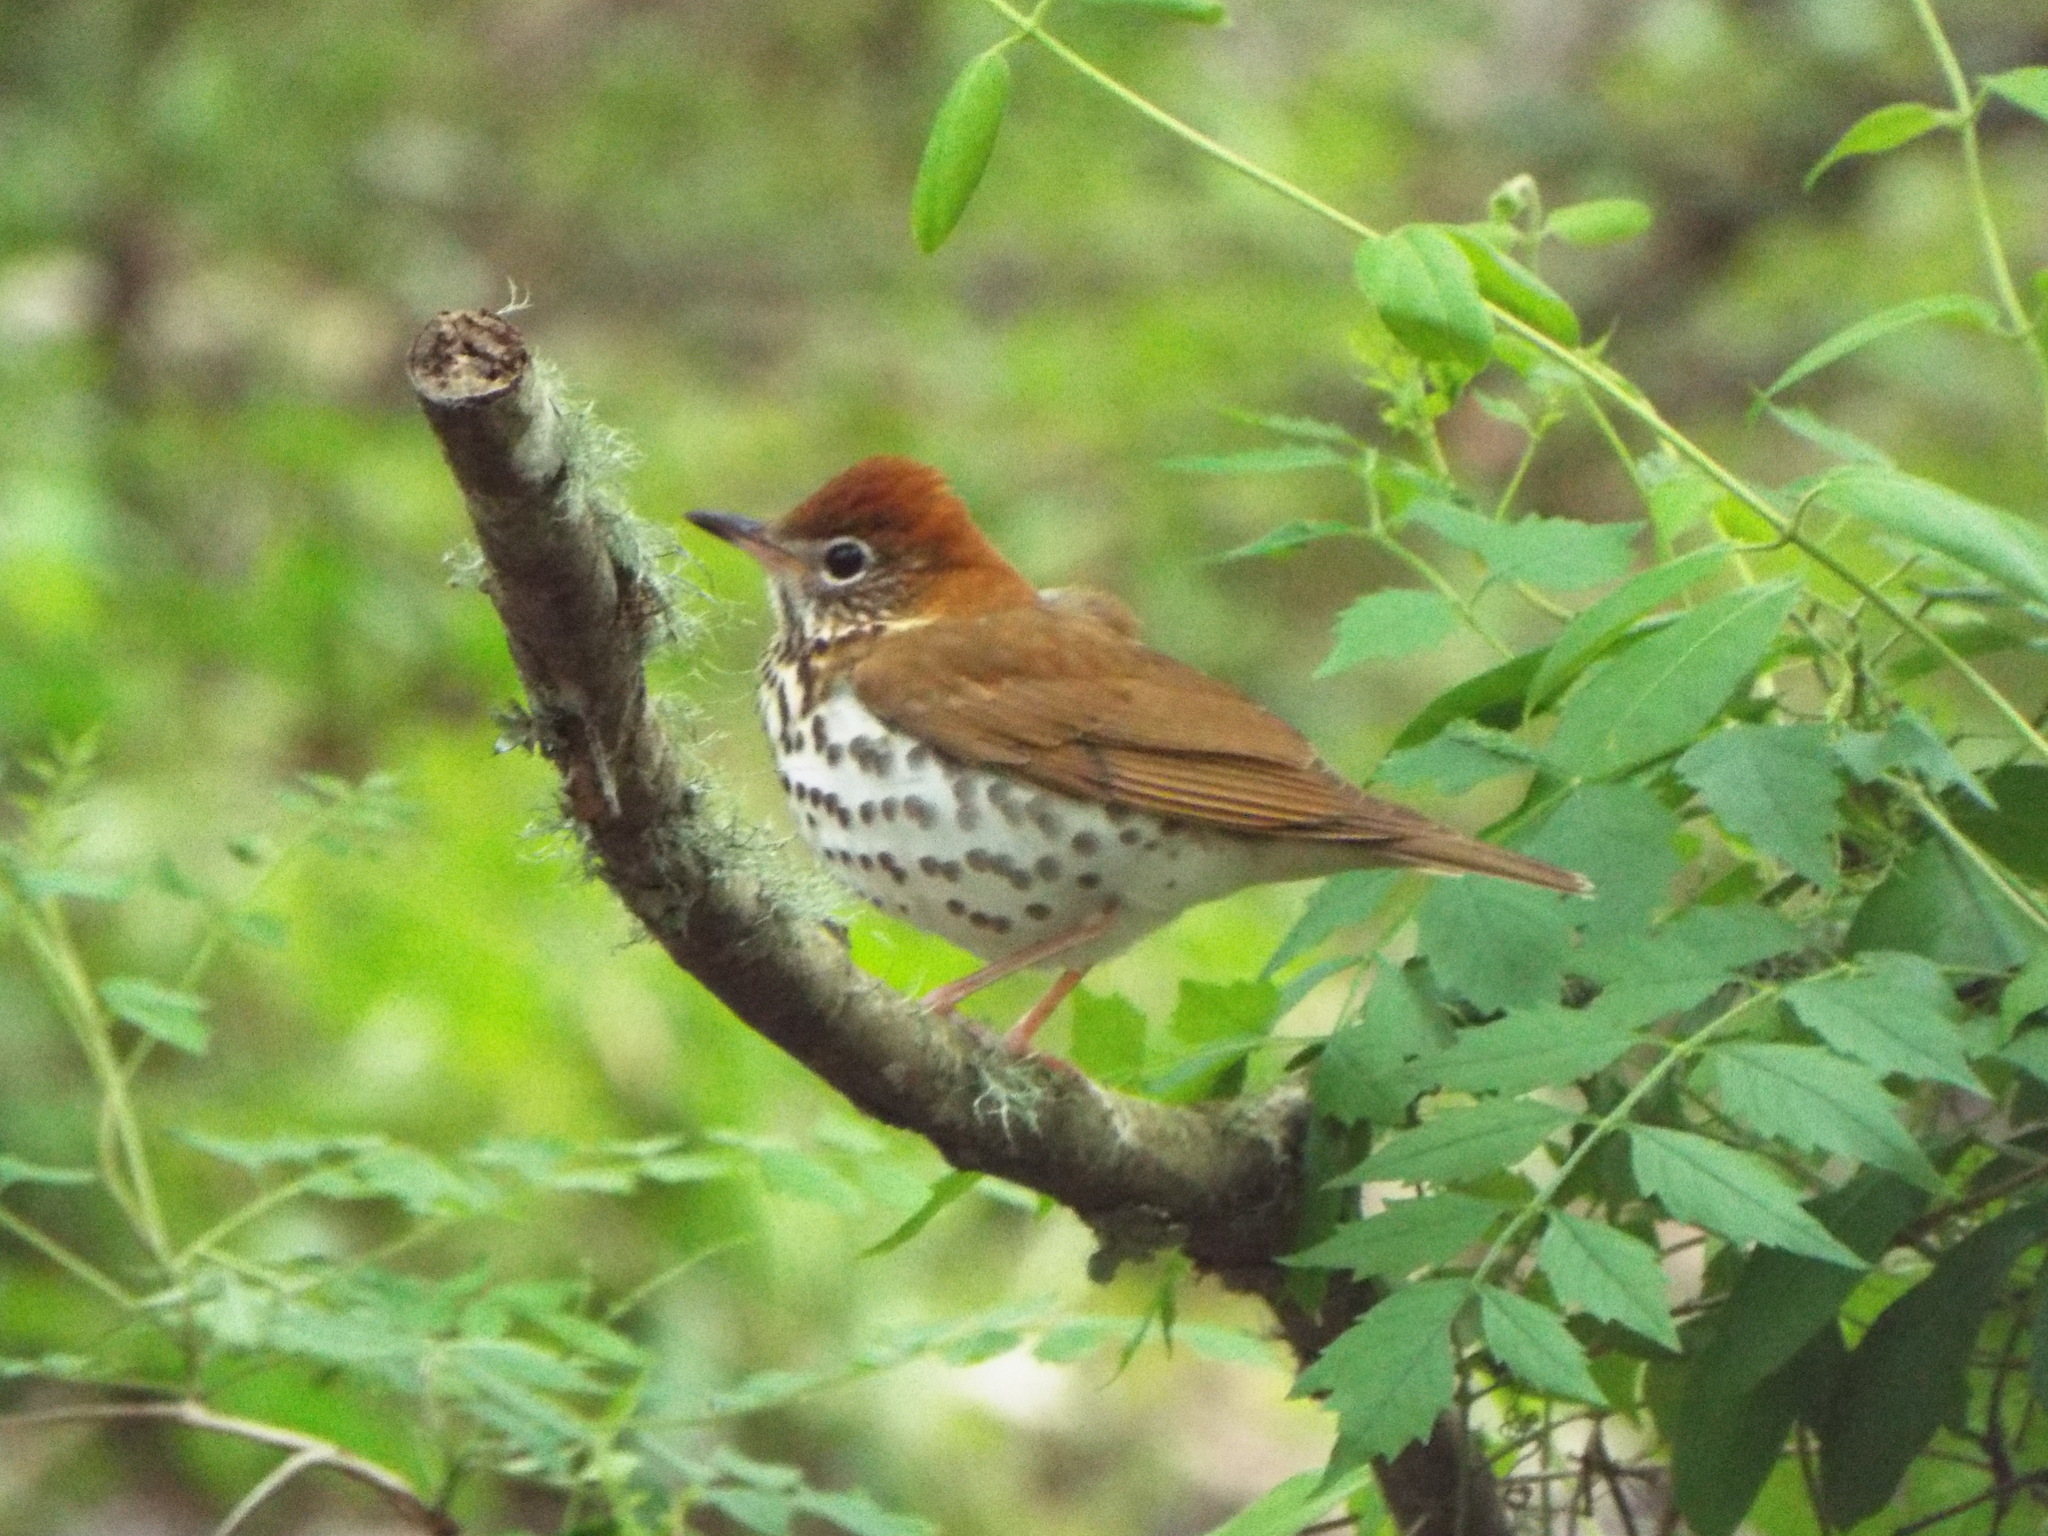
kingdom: Animalia
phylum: Chordata
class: Aves
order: Passeriformes
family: Turdidae
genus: Hylocichla
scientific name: Hylocichla mustelina
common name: Wood thrush
